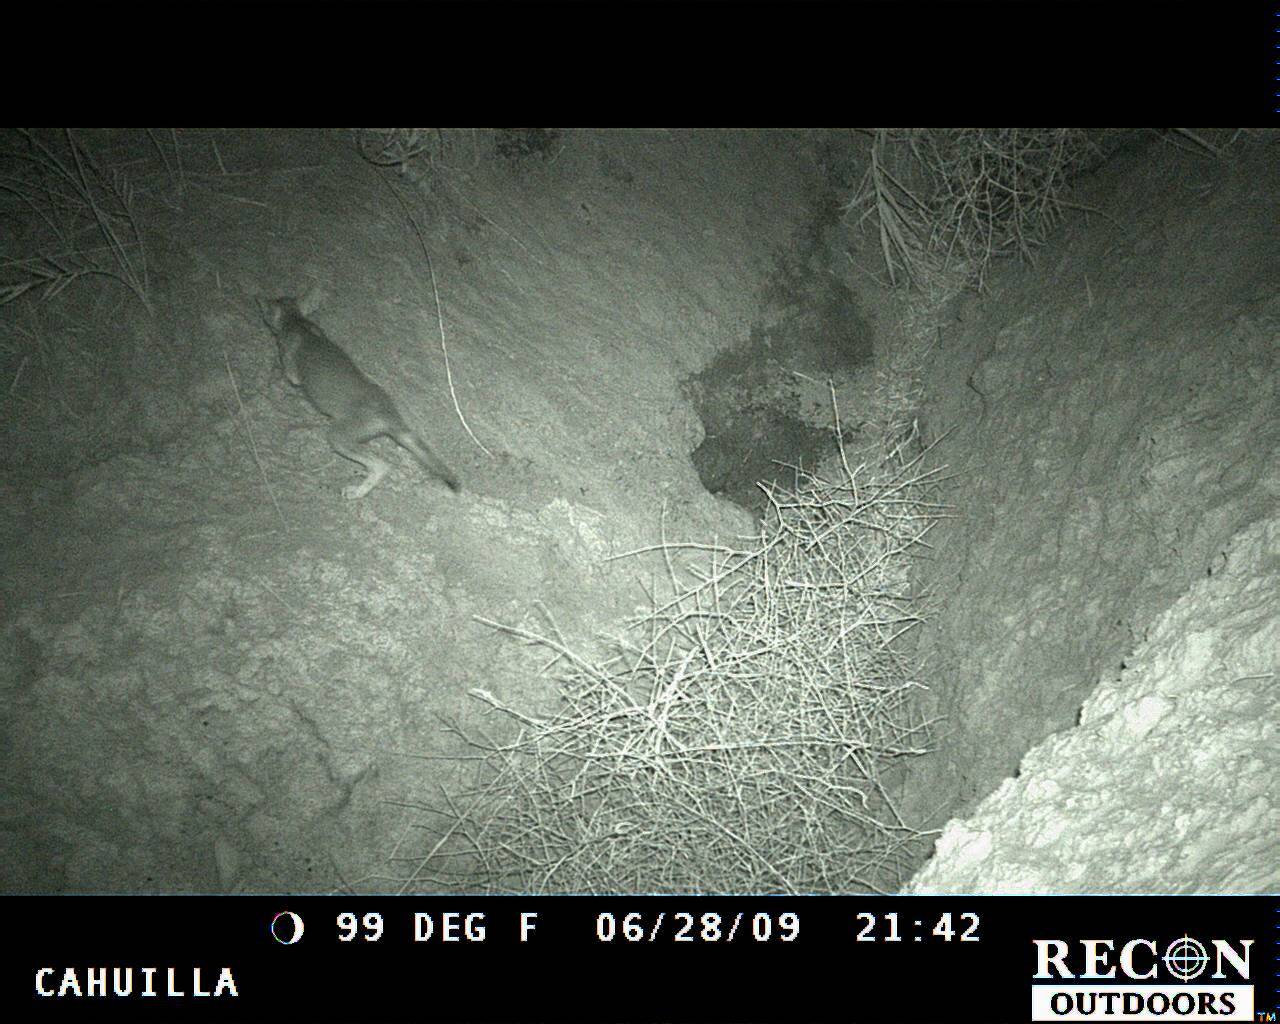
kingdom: Animalia
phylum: Chordata
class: Mammalia
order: Carnivora
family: Canidae
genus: Canis
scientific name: Canis latrans
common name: Coyote
